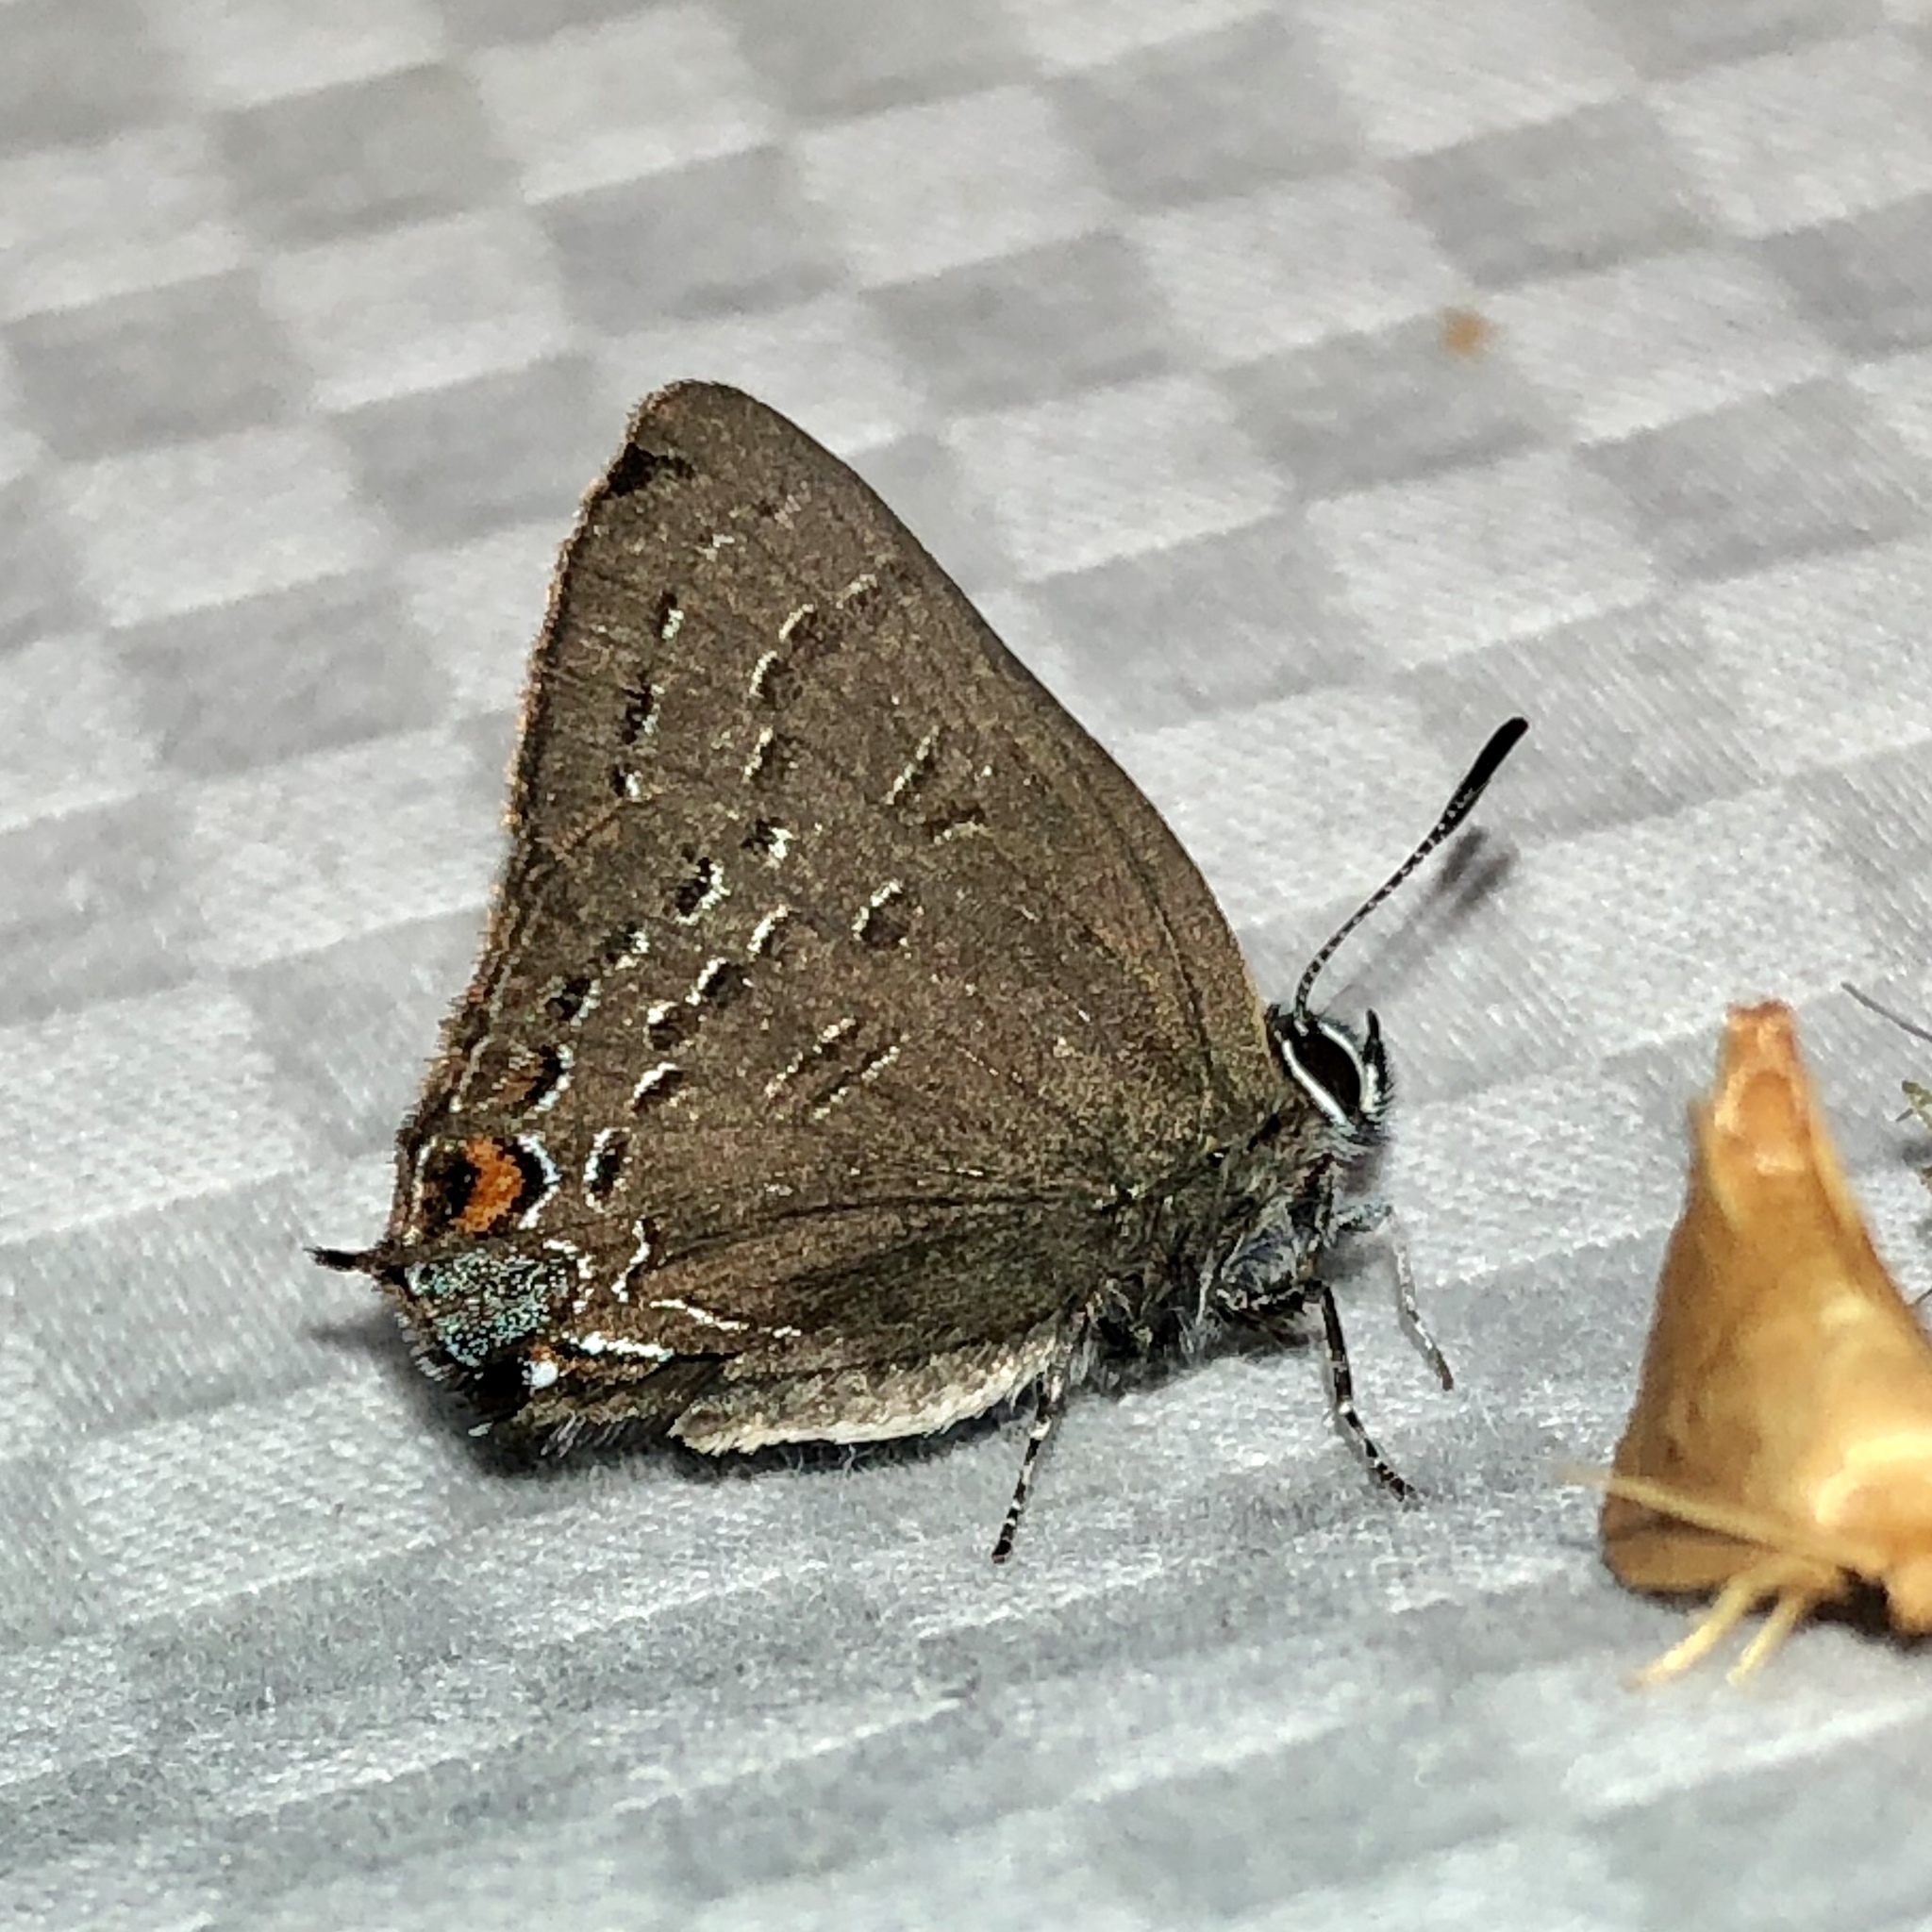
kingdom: Animalia
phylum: Arthropoda
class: Insecta
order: Lepidoptera
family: Lycaenidae
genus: Satyrium
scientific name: Satyrium calanus
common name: Banded hairstreak
